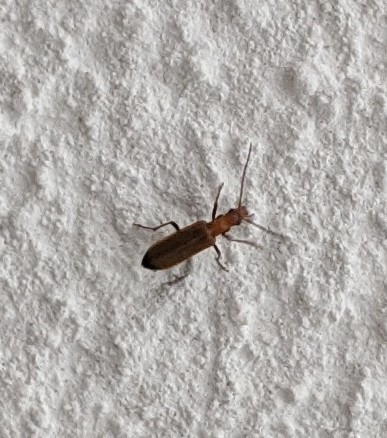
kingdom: Animalia
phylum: Arthropoda
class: Insecta
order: Coleoptera
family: Oedemeridae
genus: Nacerdes
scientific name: Nacerdes melanura
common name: Wharf borer
